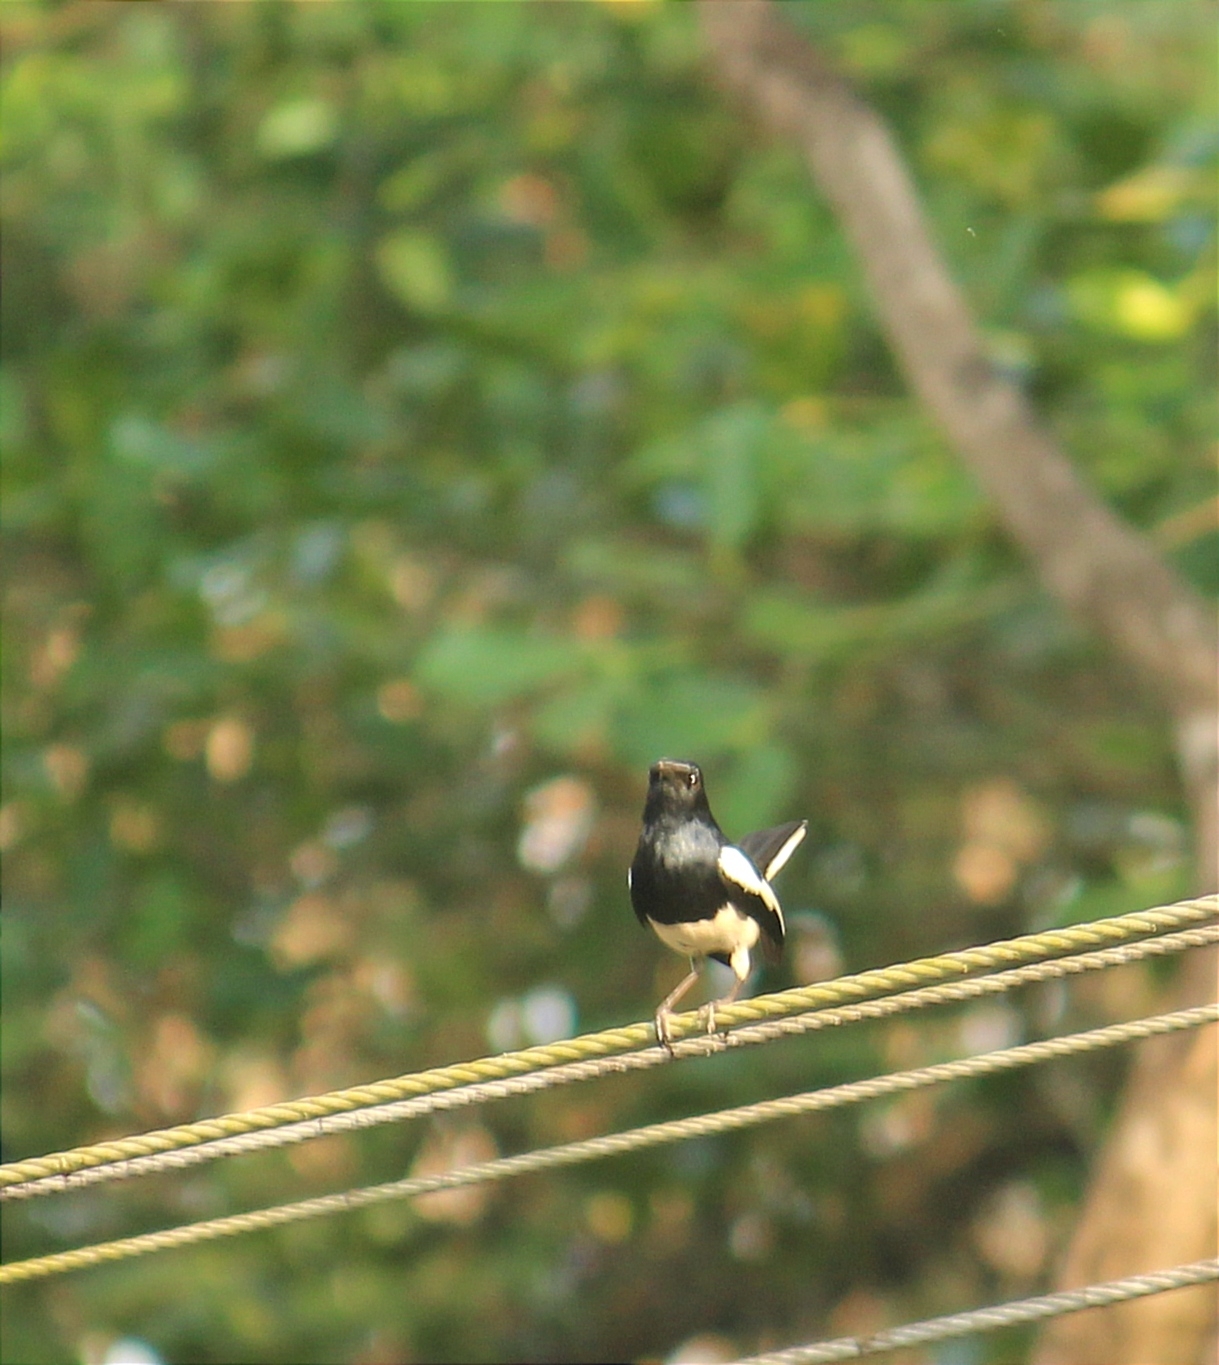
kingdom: Animalia
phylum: Chordata
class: Aves
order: Passeriformes
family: Muscicapidae
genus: Copsychus
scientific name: Copsychus saularis
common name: Oriental magpie-robin
